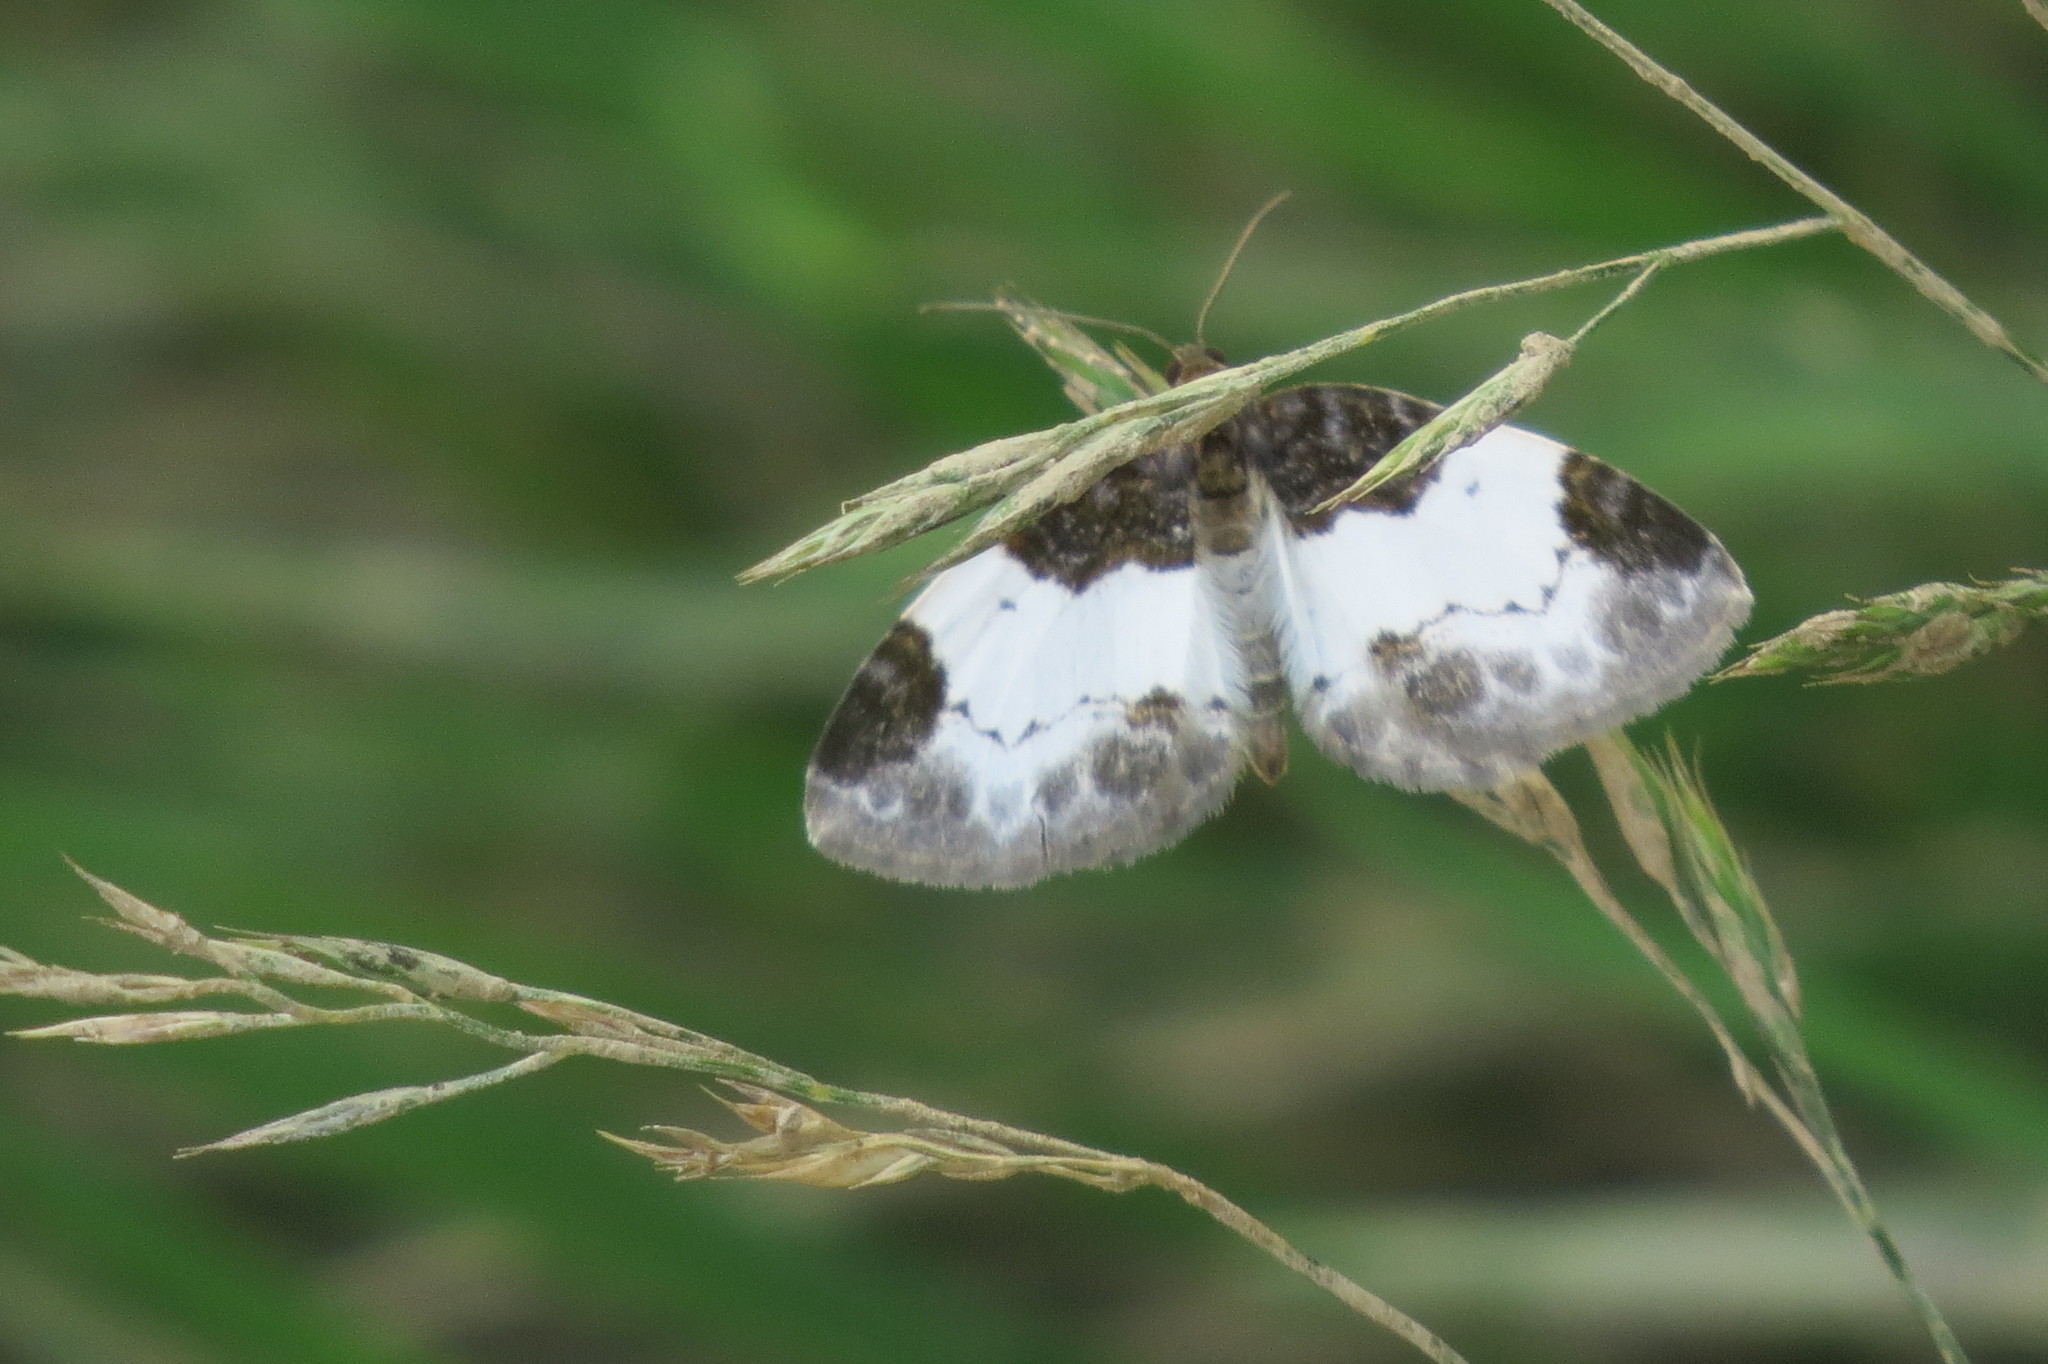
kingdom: Animalia
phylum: Arthropoda
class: Insecta
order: Lepidoptera
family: Geometridae
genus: Mesoleuca
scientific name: Mesoleuca albicillata
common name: Beautiful carpet
